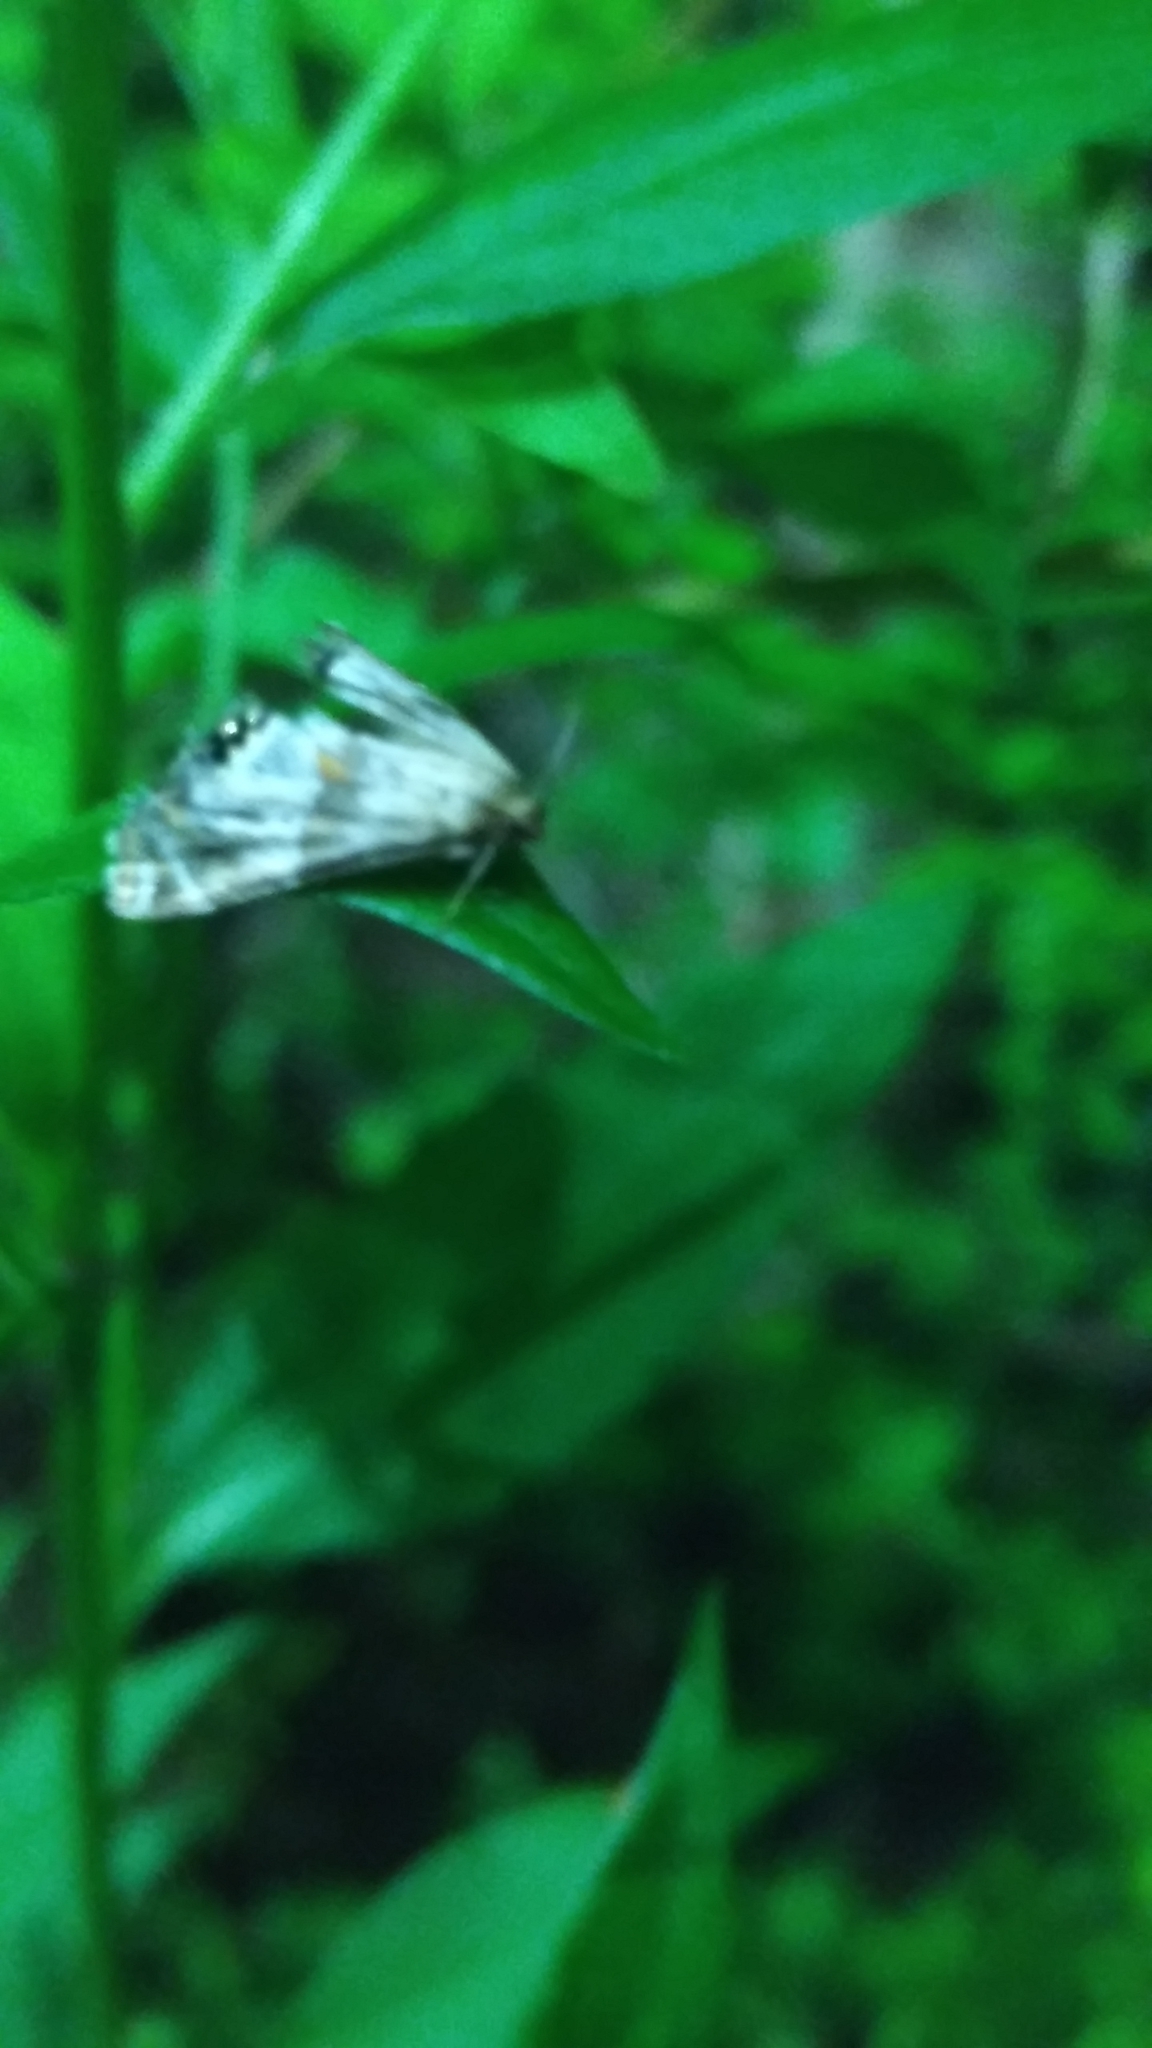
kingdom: Animalia
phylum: Arthropoda
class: Insecta
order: Lepidoptera
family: Crambidae
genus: Petrophila
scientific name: Petrophila jaliscalis
